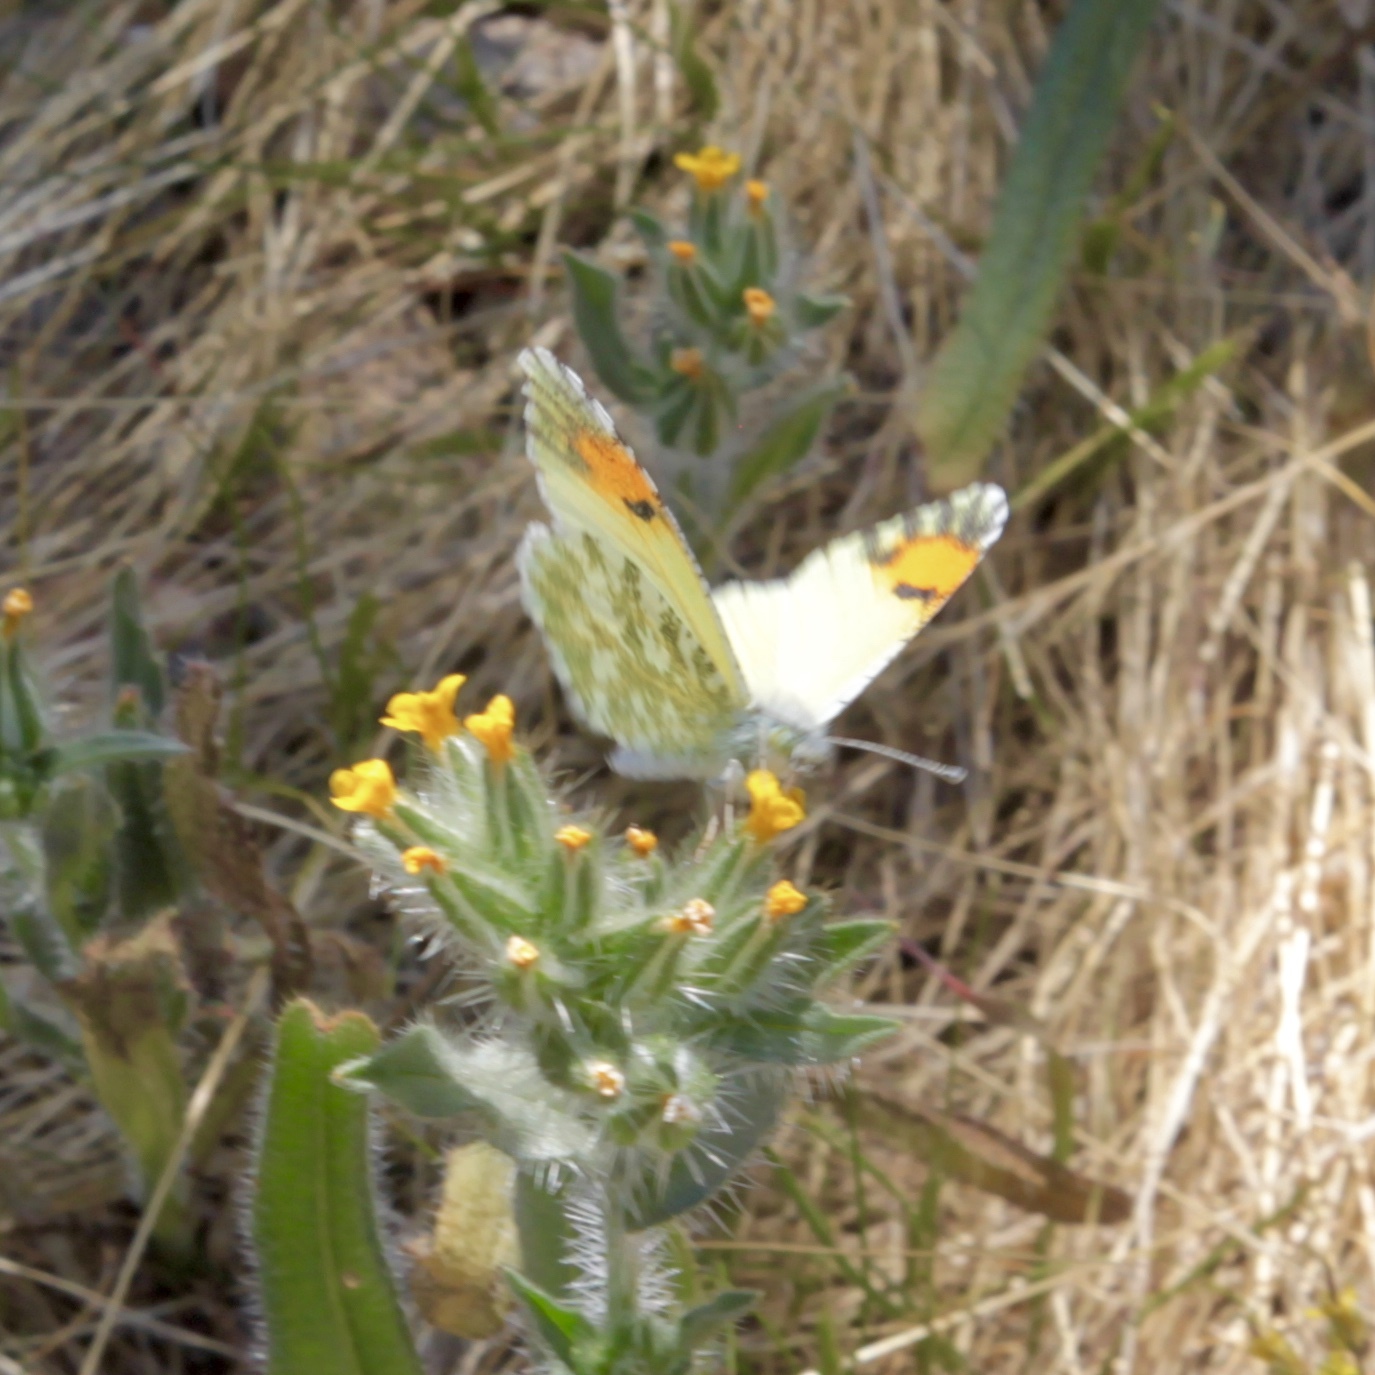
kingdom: Animalia
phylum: Arthropoda
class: Insecta
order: Lepidoptera
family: Pieridae
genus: Anthocharis
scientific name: Anthocharis cethura
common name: Desert orangetip
